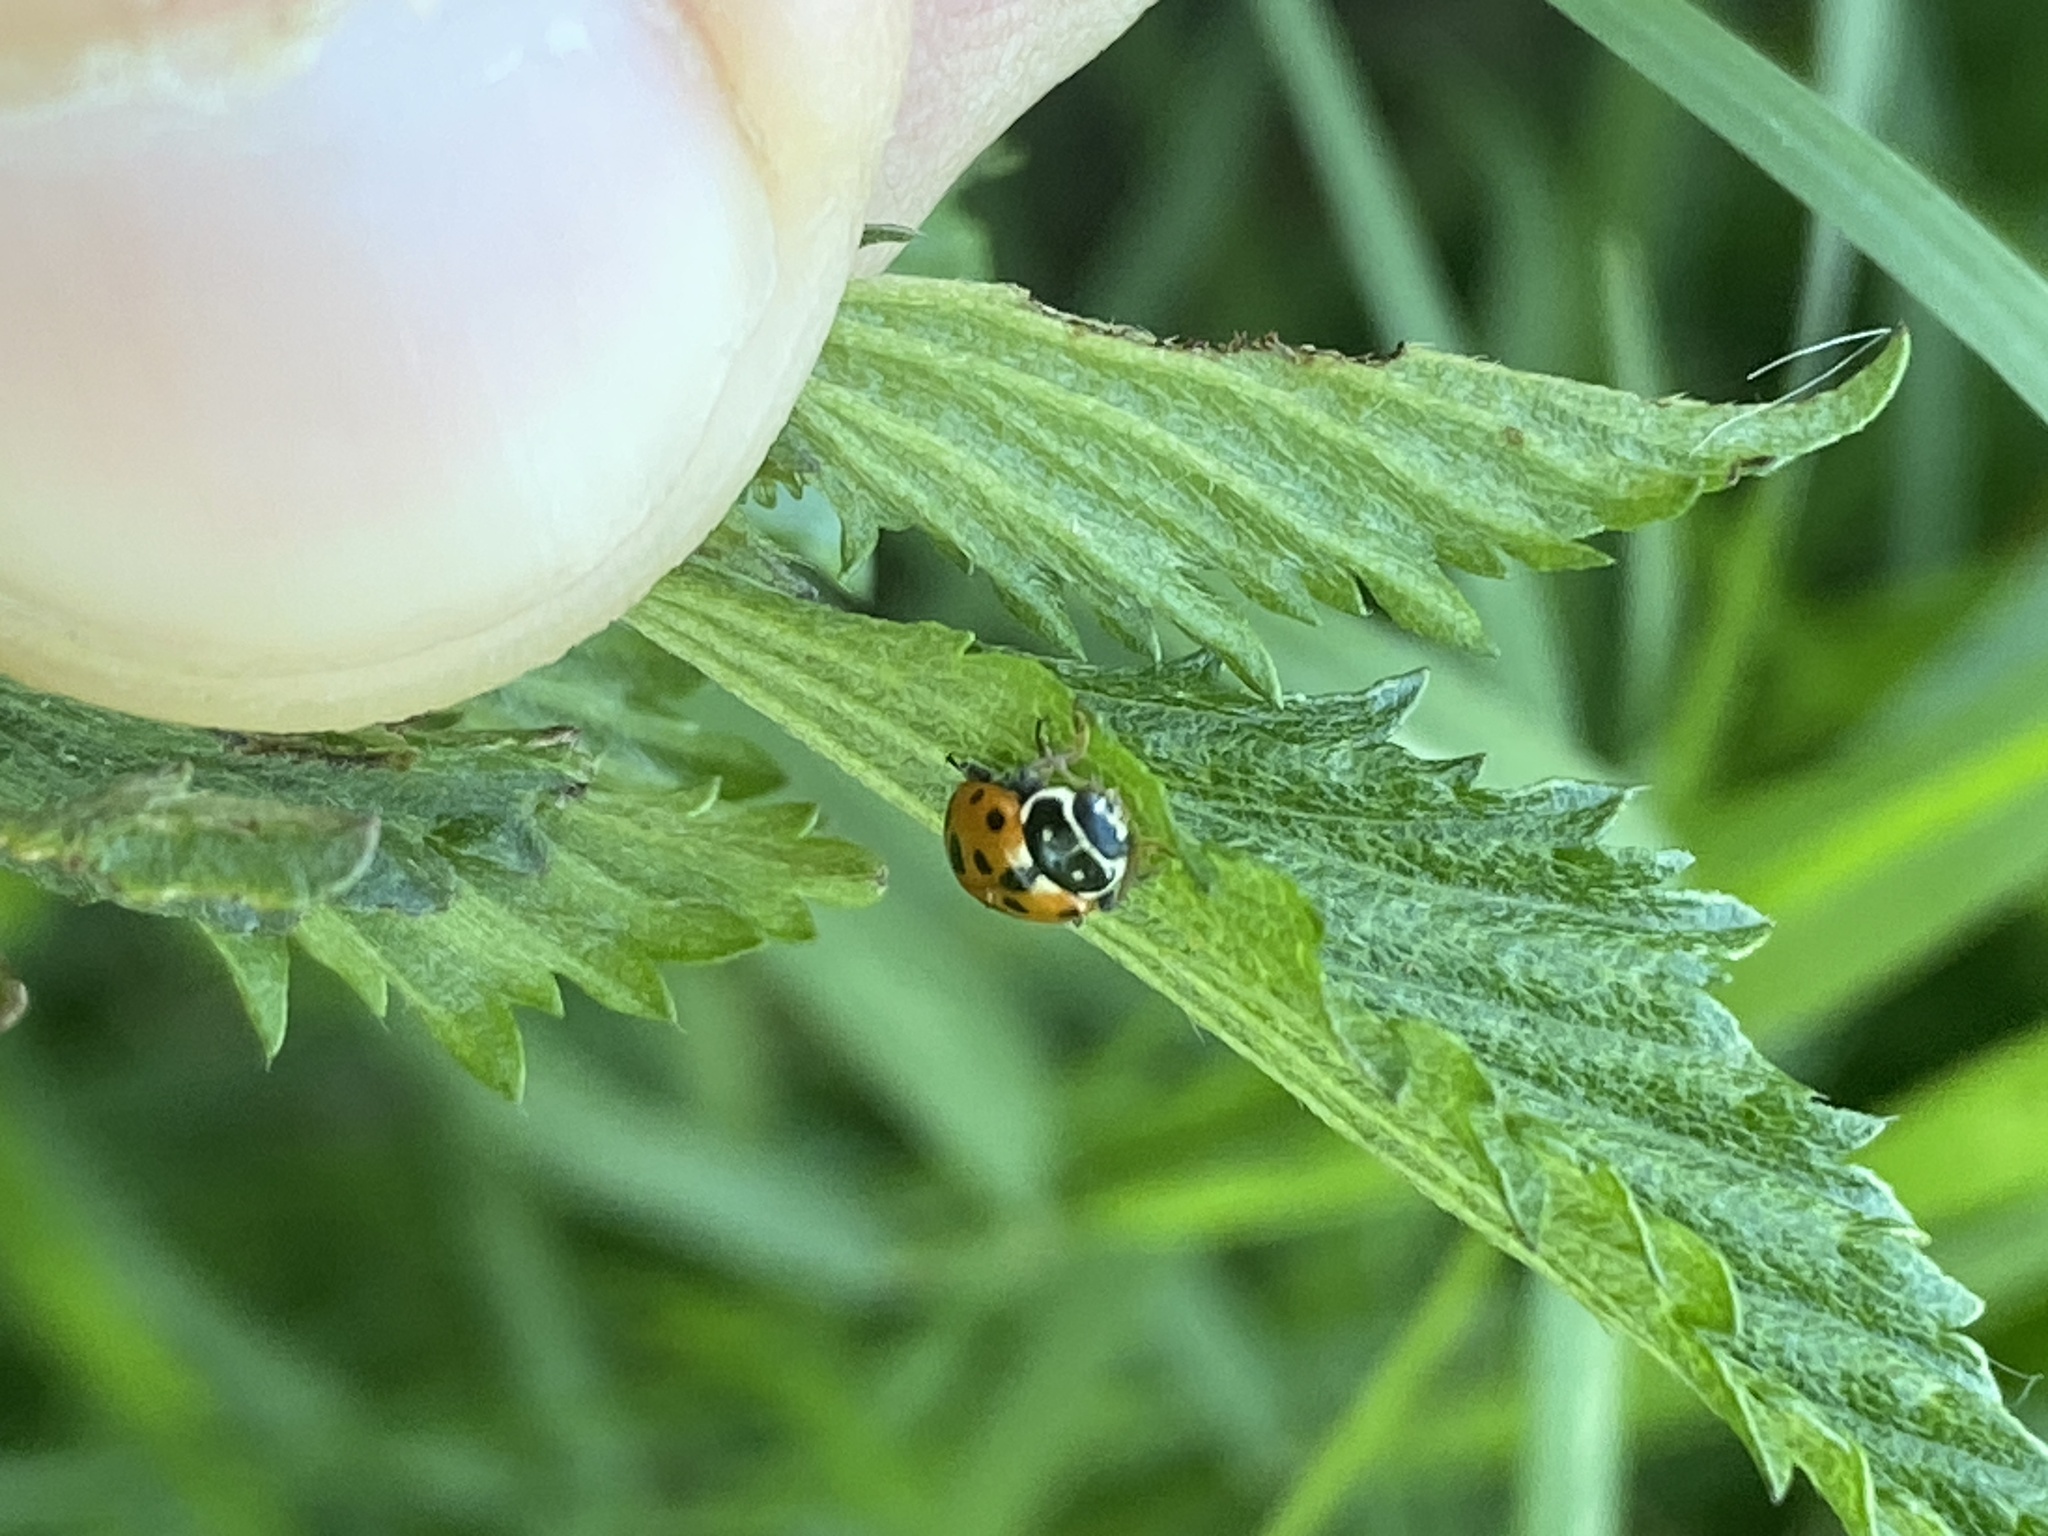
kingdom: Animalia
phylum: Arthropoda
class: Insecta
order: Coleoptera
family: Coccinellidae
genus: Hippodamia
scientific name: Hippodamia variegata
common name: Ladybird beetle
